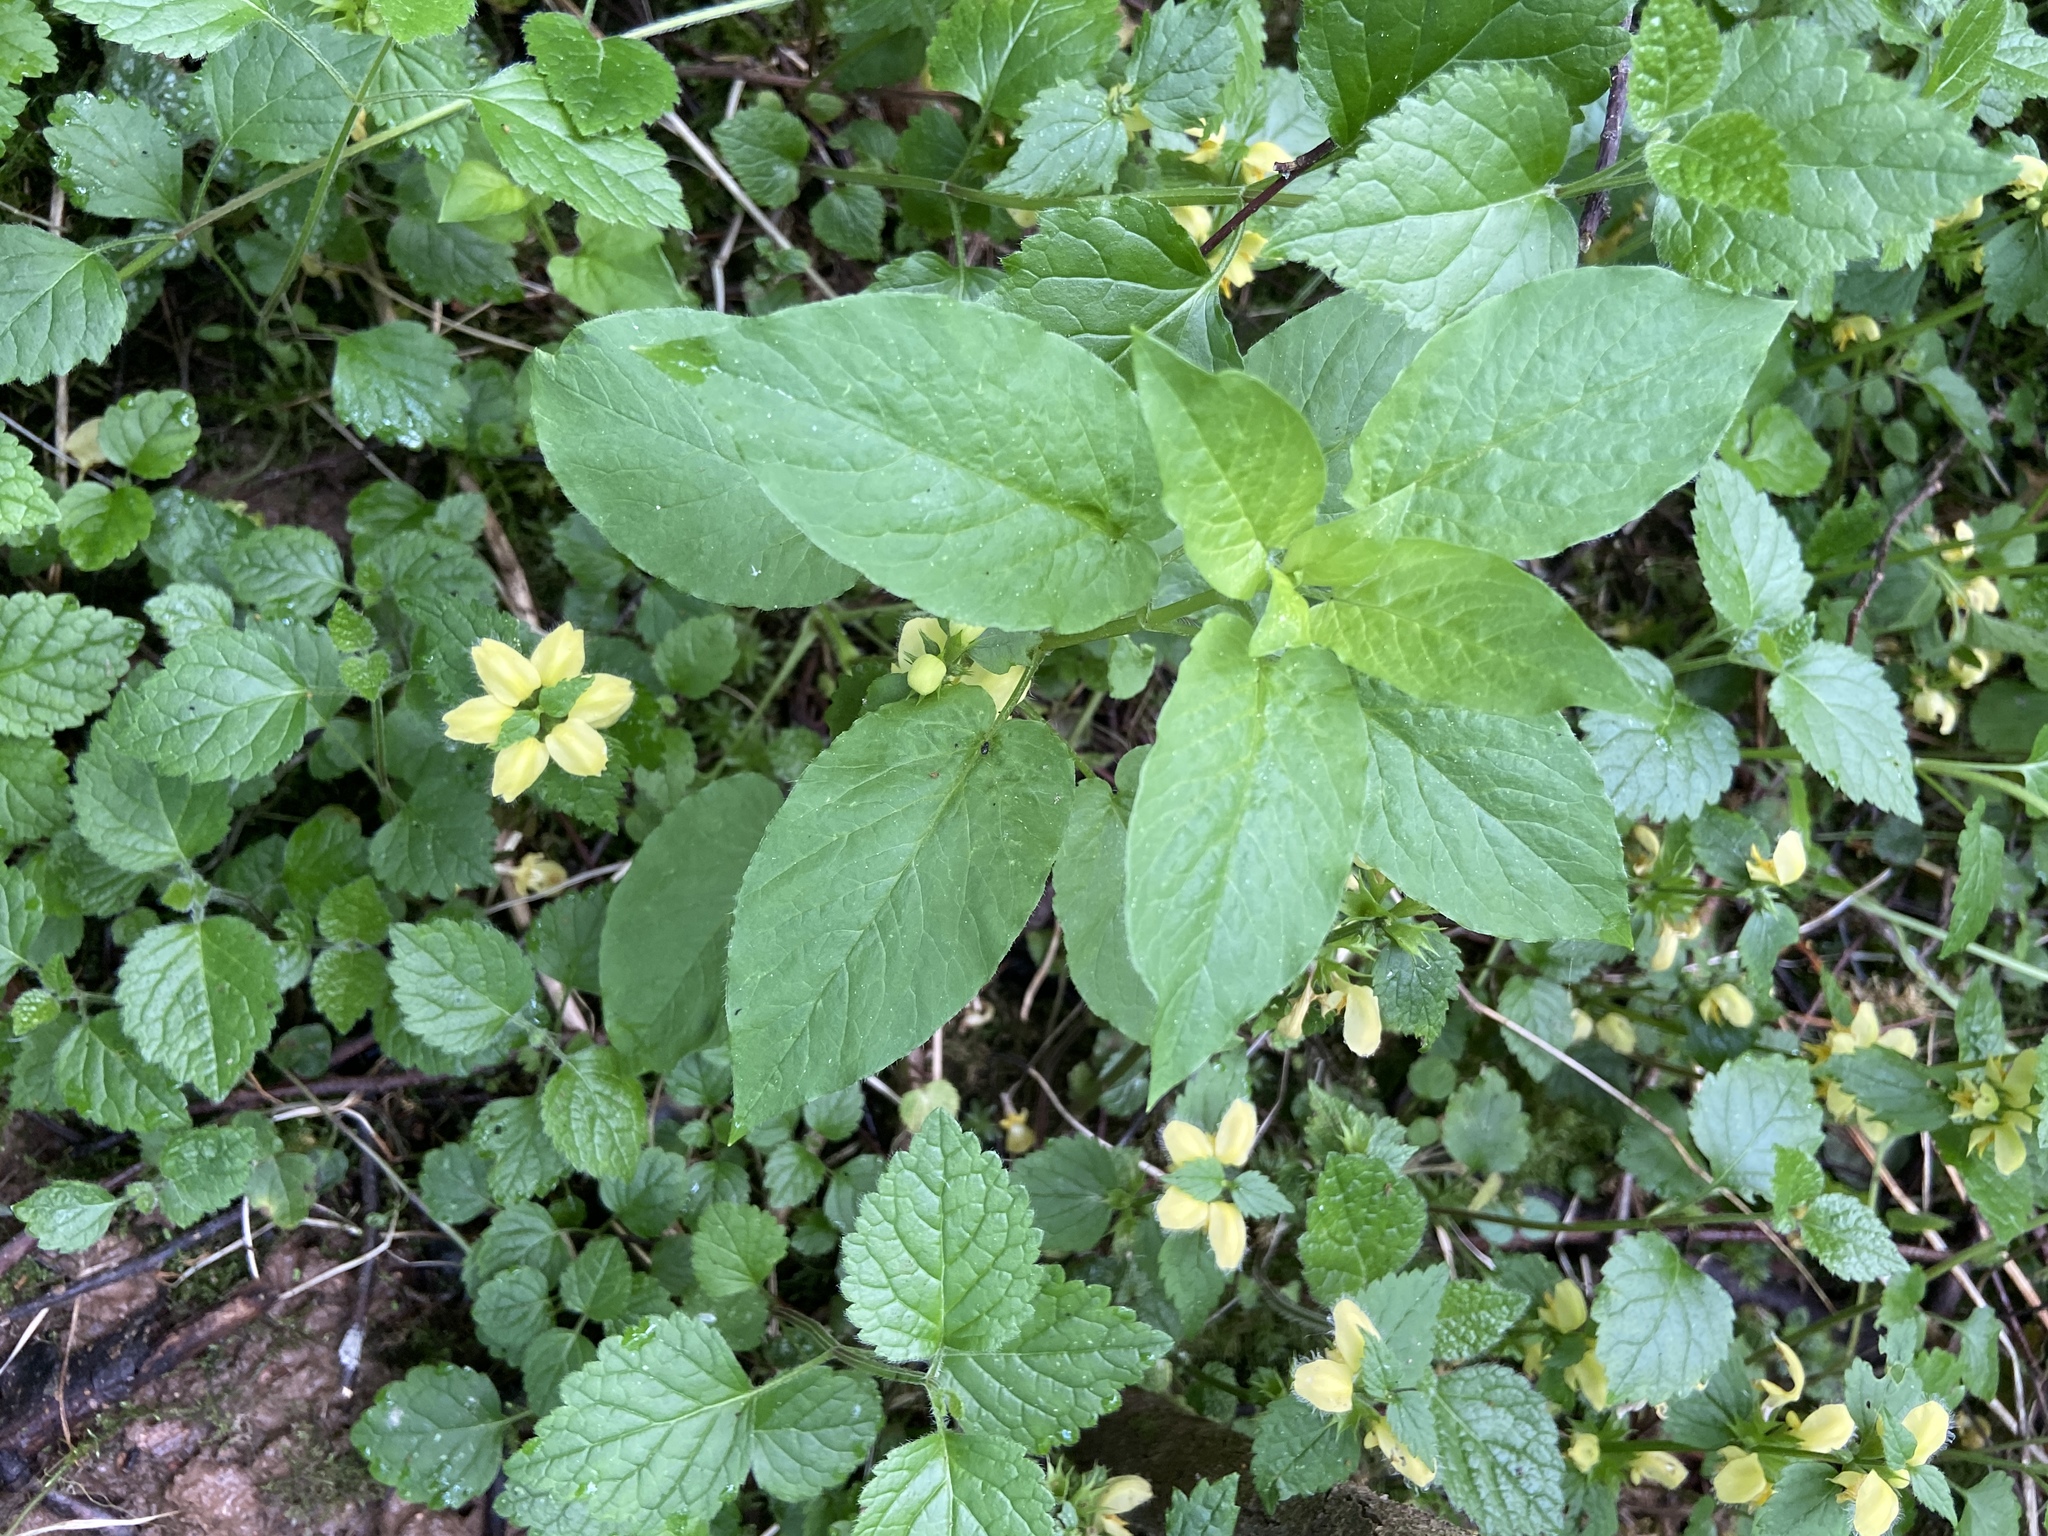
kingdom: Plantae
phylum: Tracheophyta
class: Magnoliopsida
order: Caryophyllales
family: Caryophyllaceae
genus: Stellaria
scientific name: Stellaria nemorum
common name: Wood stitchwort
